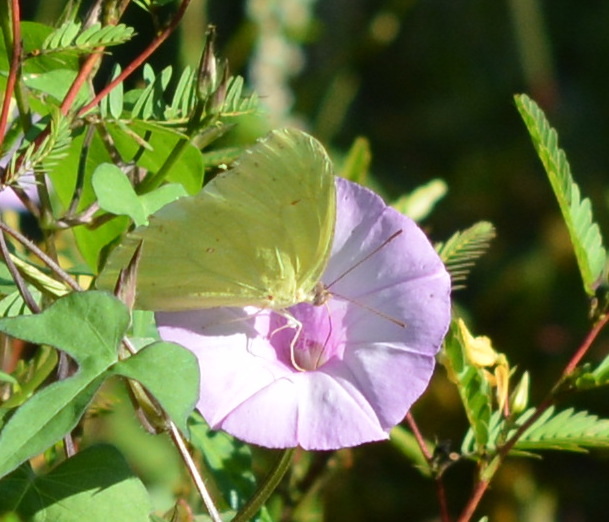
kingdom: Animalia
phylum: Arthropoda
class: Insecta
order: Lepidoptera
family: Pieridae
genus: Phoebis
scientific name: Phoebis sennae
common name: Cloudless sulphur
